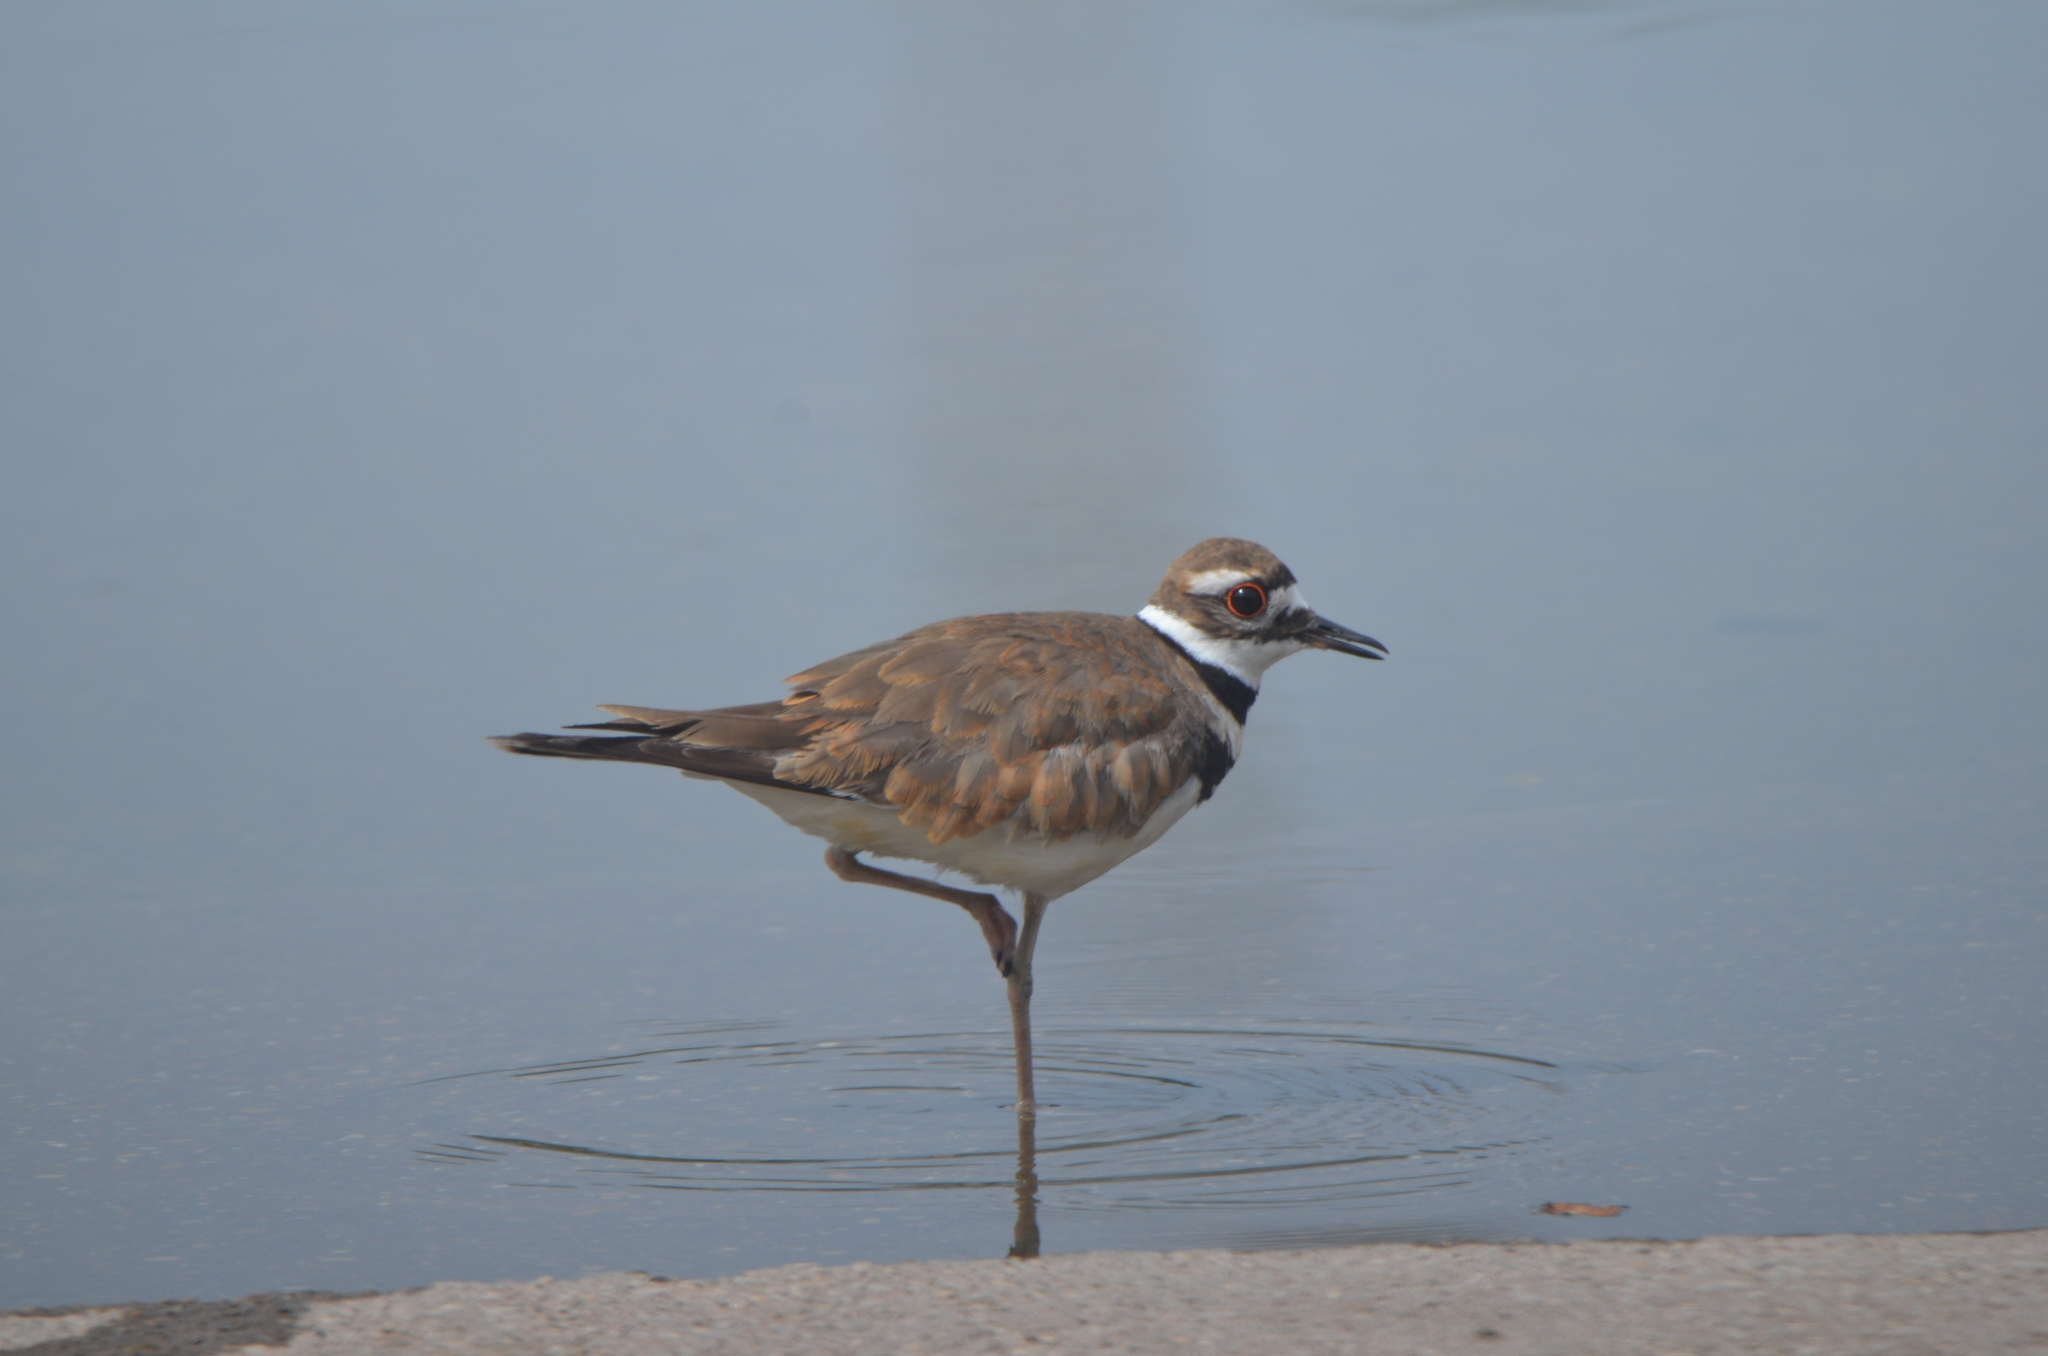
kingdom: Animalia
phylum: Chordata
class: Aves
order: Charadriiformes
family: Charadriidae
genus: Charadrius
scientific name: Charadrius vociferus
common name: Killdeer
